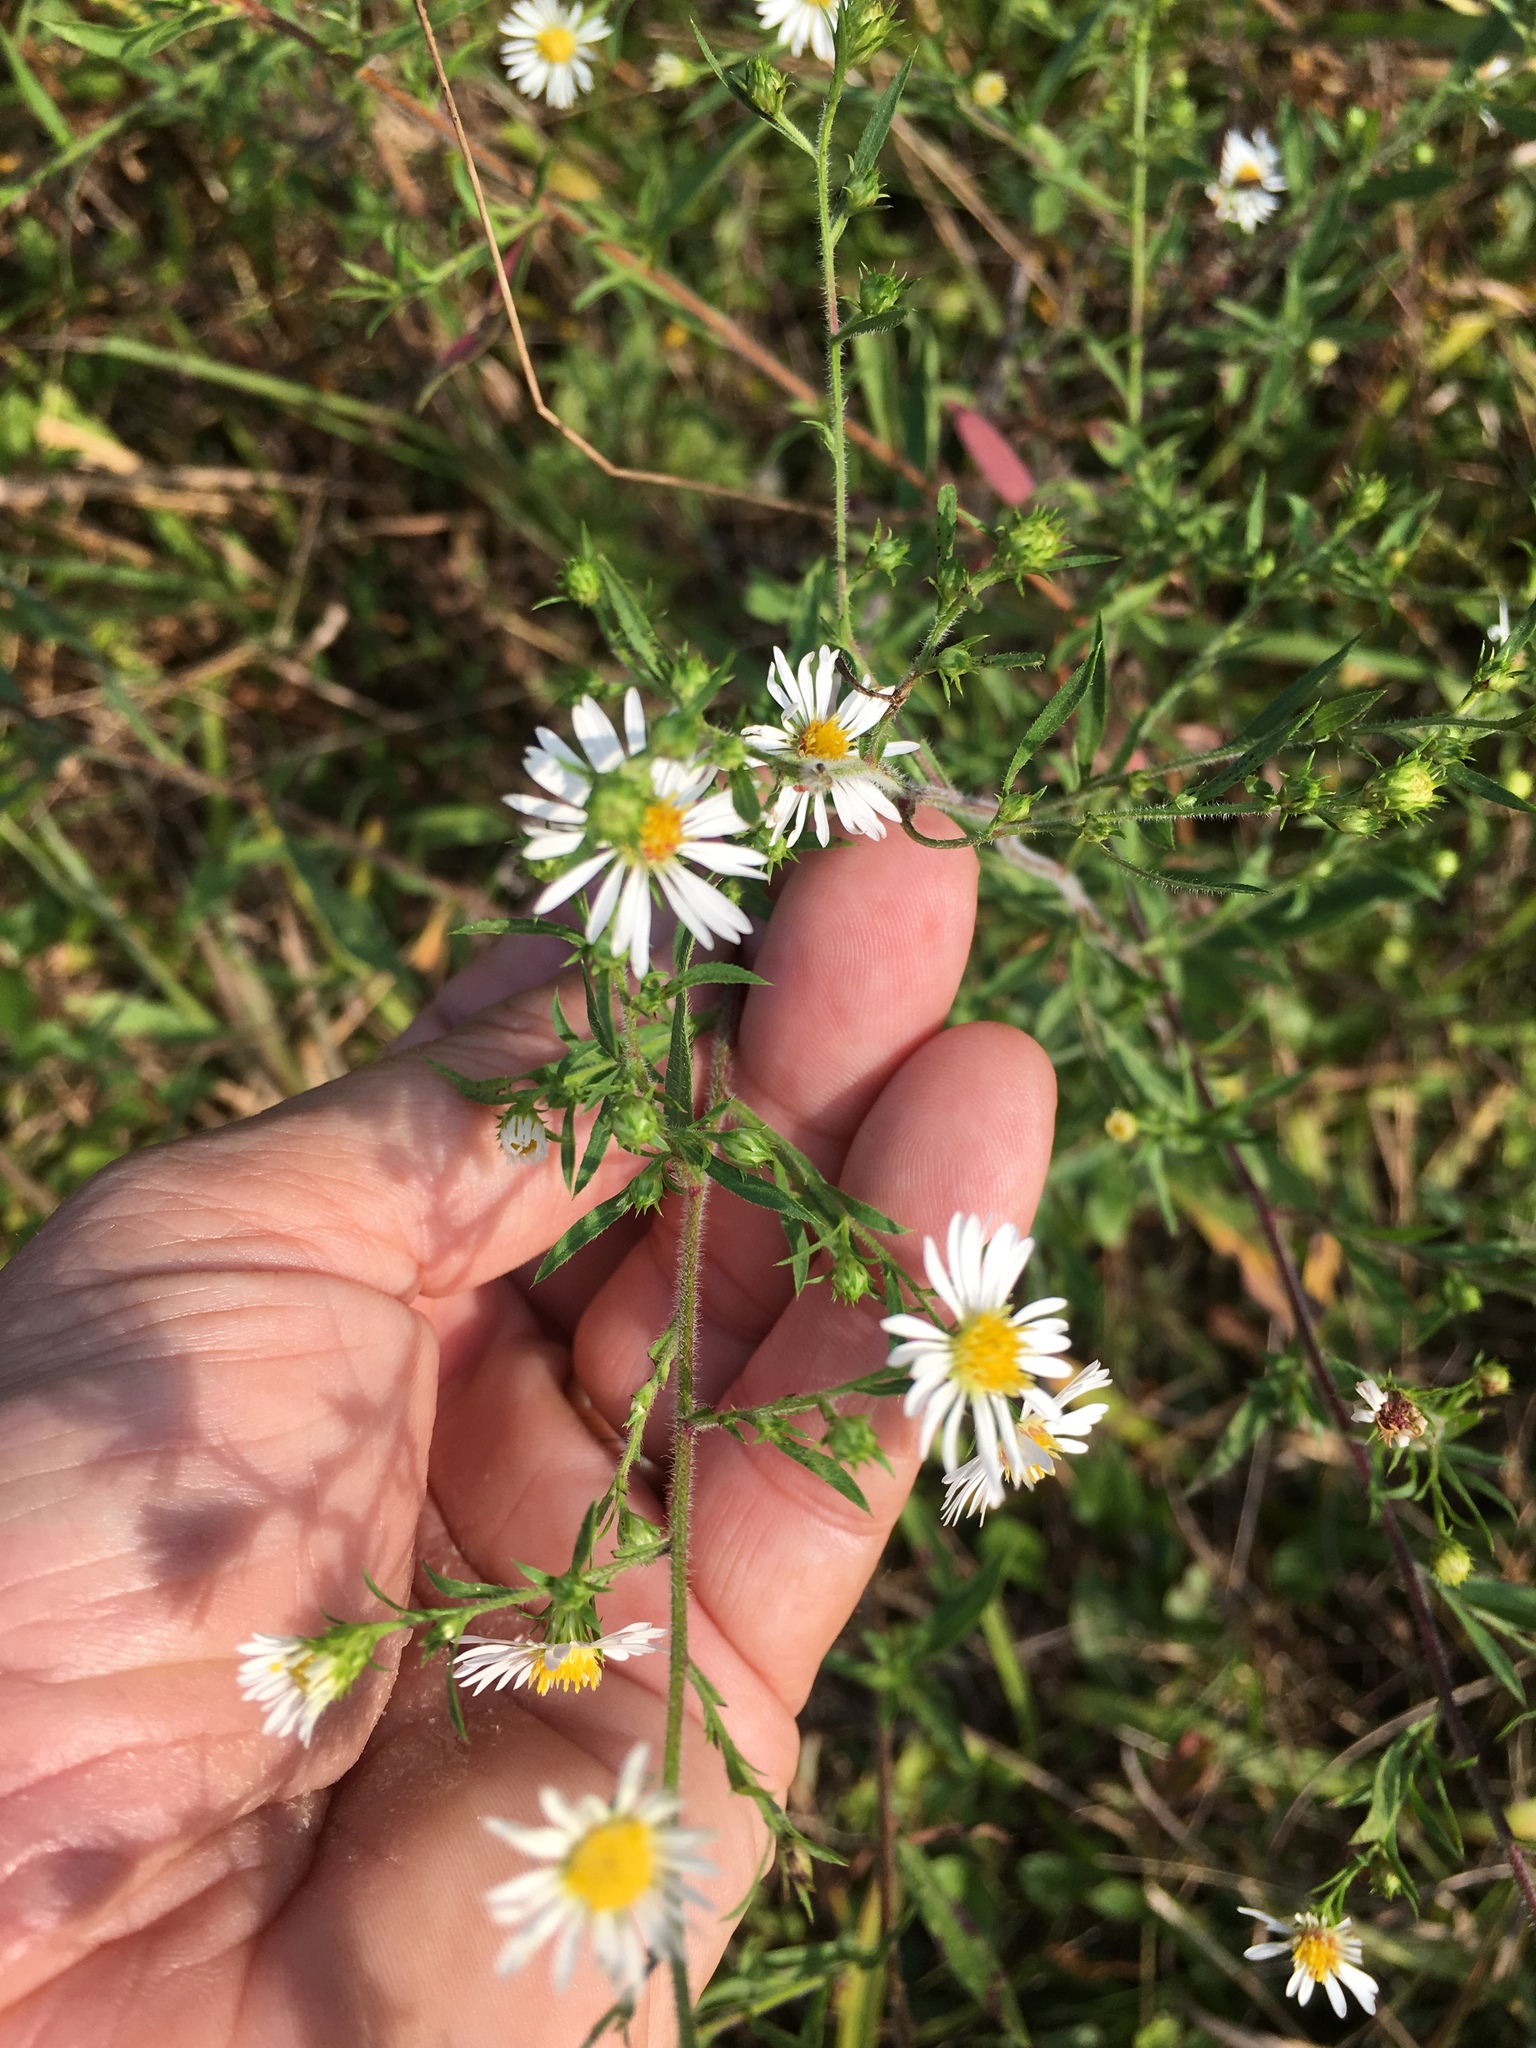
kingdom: Plantae
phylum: Tracheophyta
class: Magnoliopsida
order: Asterales
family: Asteraceae
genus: Symphyotrichum
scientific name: Symphyotrichum pilosum
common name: Awl aster
